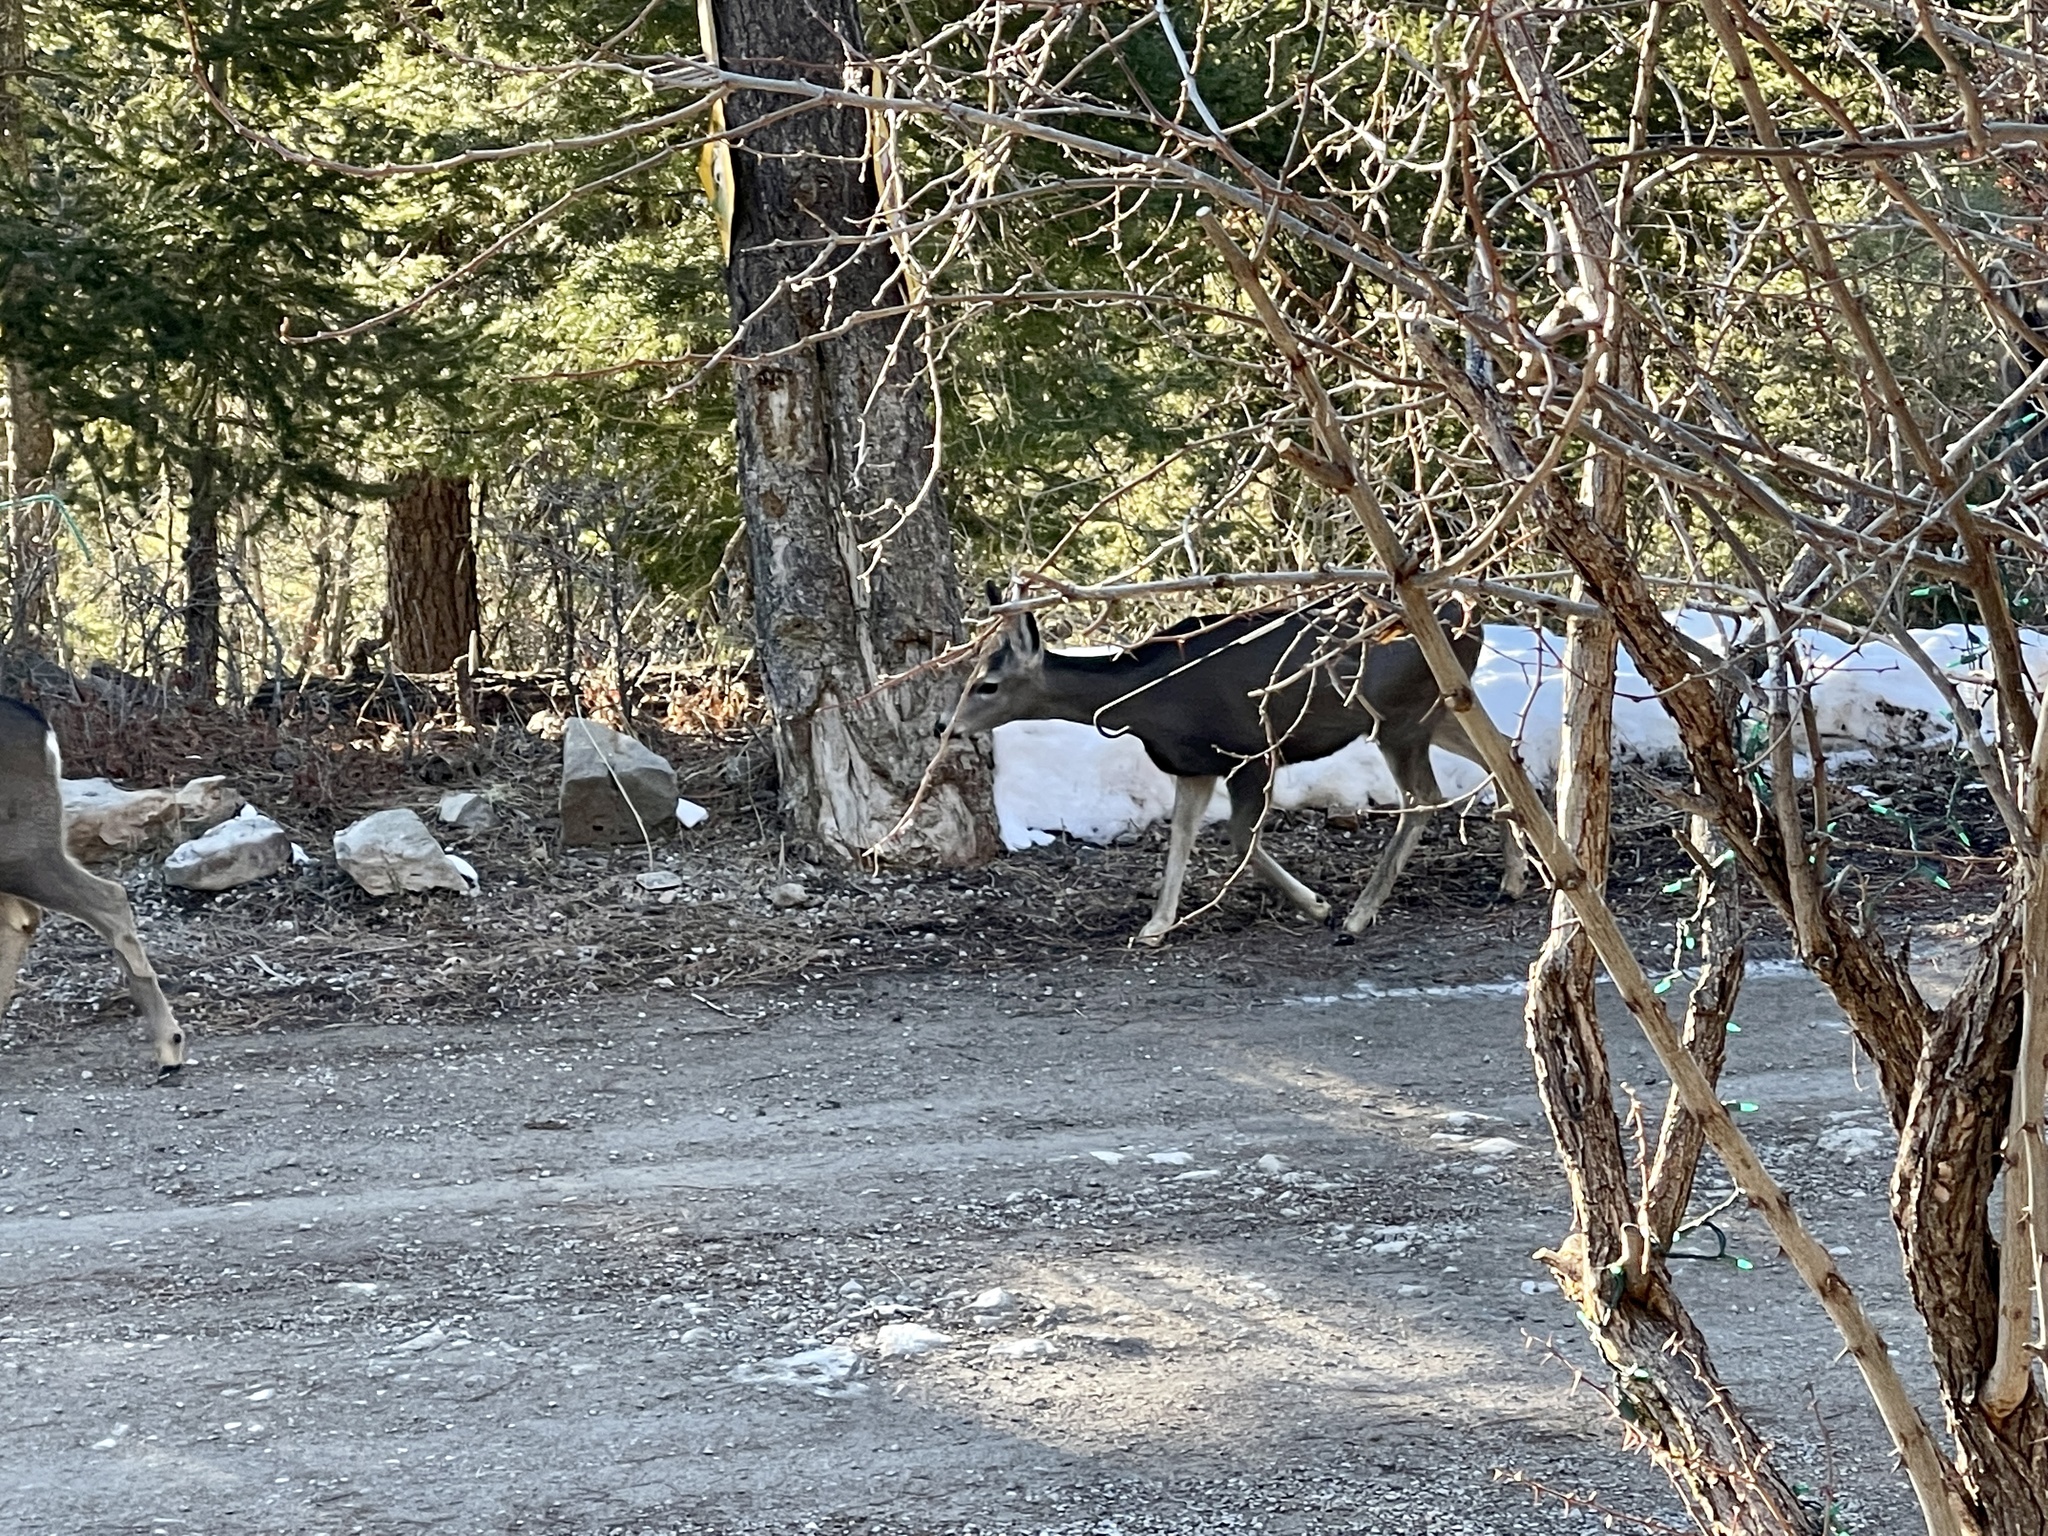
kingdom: Animalia
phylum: Chordata
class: Mammalia
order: Artiodactyla
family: Cervidae
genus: Odocoileus
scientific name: Odocoileus hemionus
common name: Mule deer
